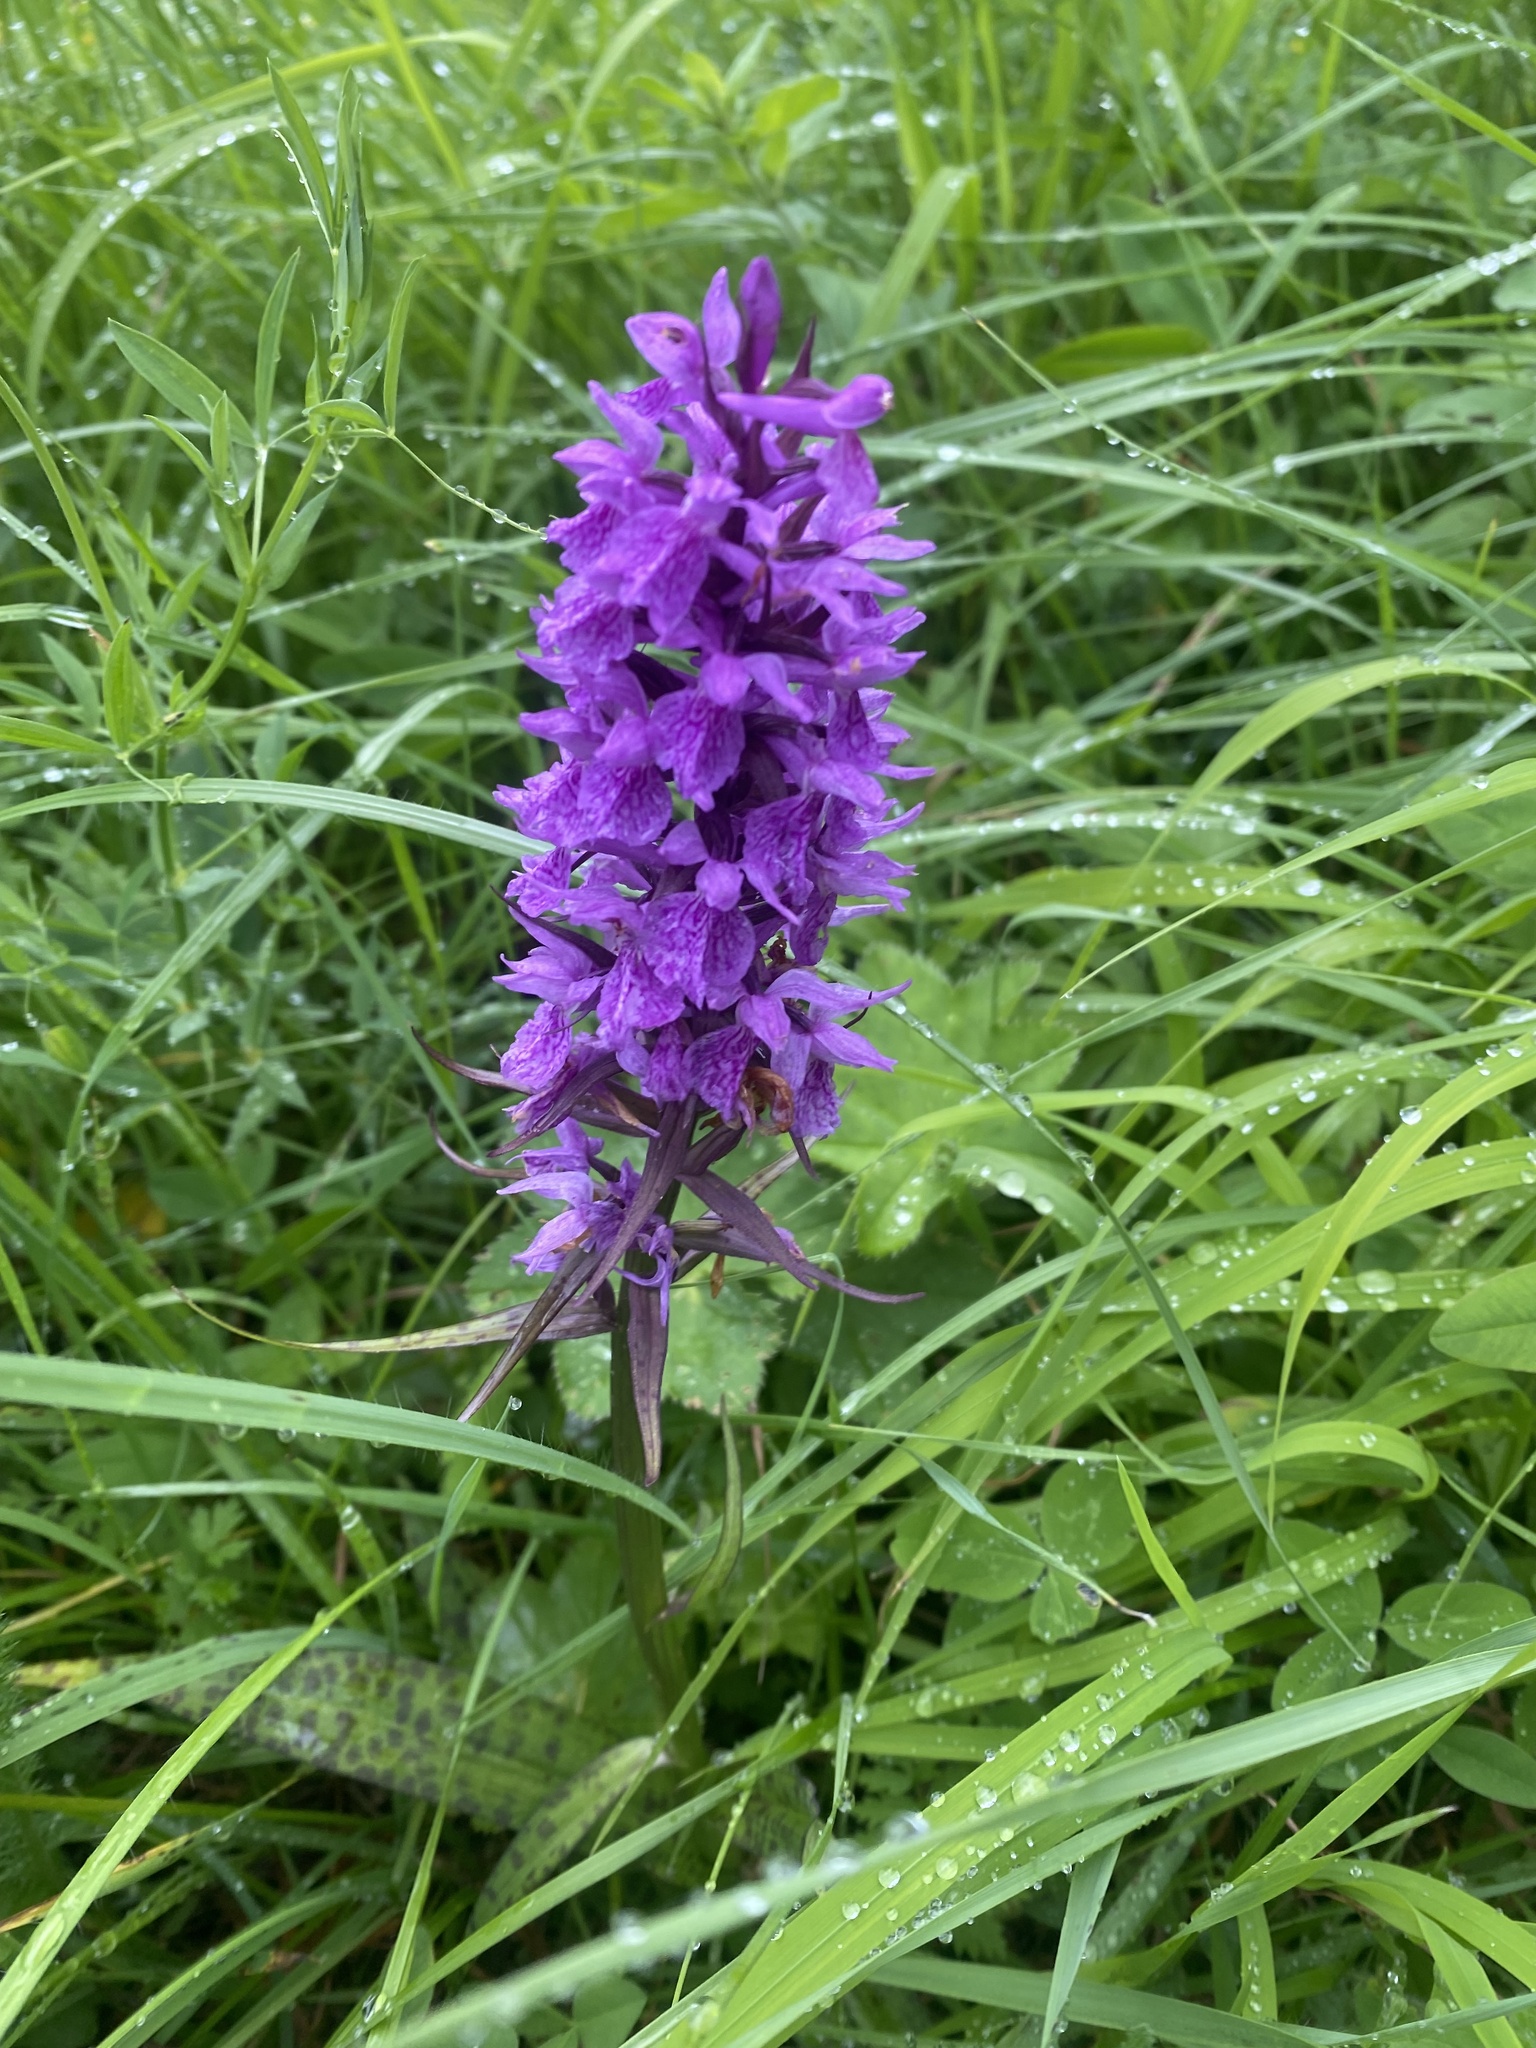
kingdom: Plantae
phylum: Tracheophyta
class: Liliopsida
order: Asparagales
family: Orchidaceae
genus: Dactylorhiza
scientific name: Dactylorhiza urvilleana
